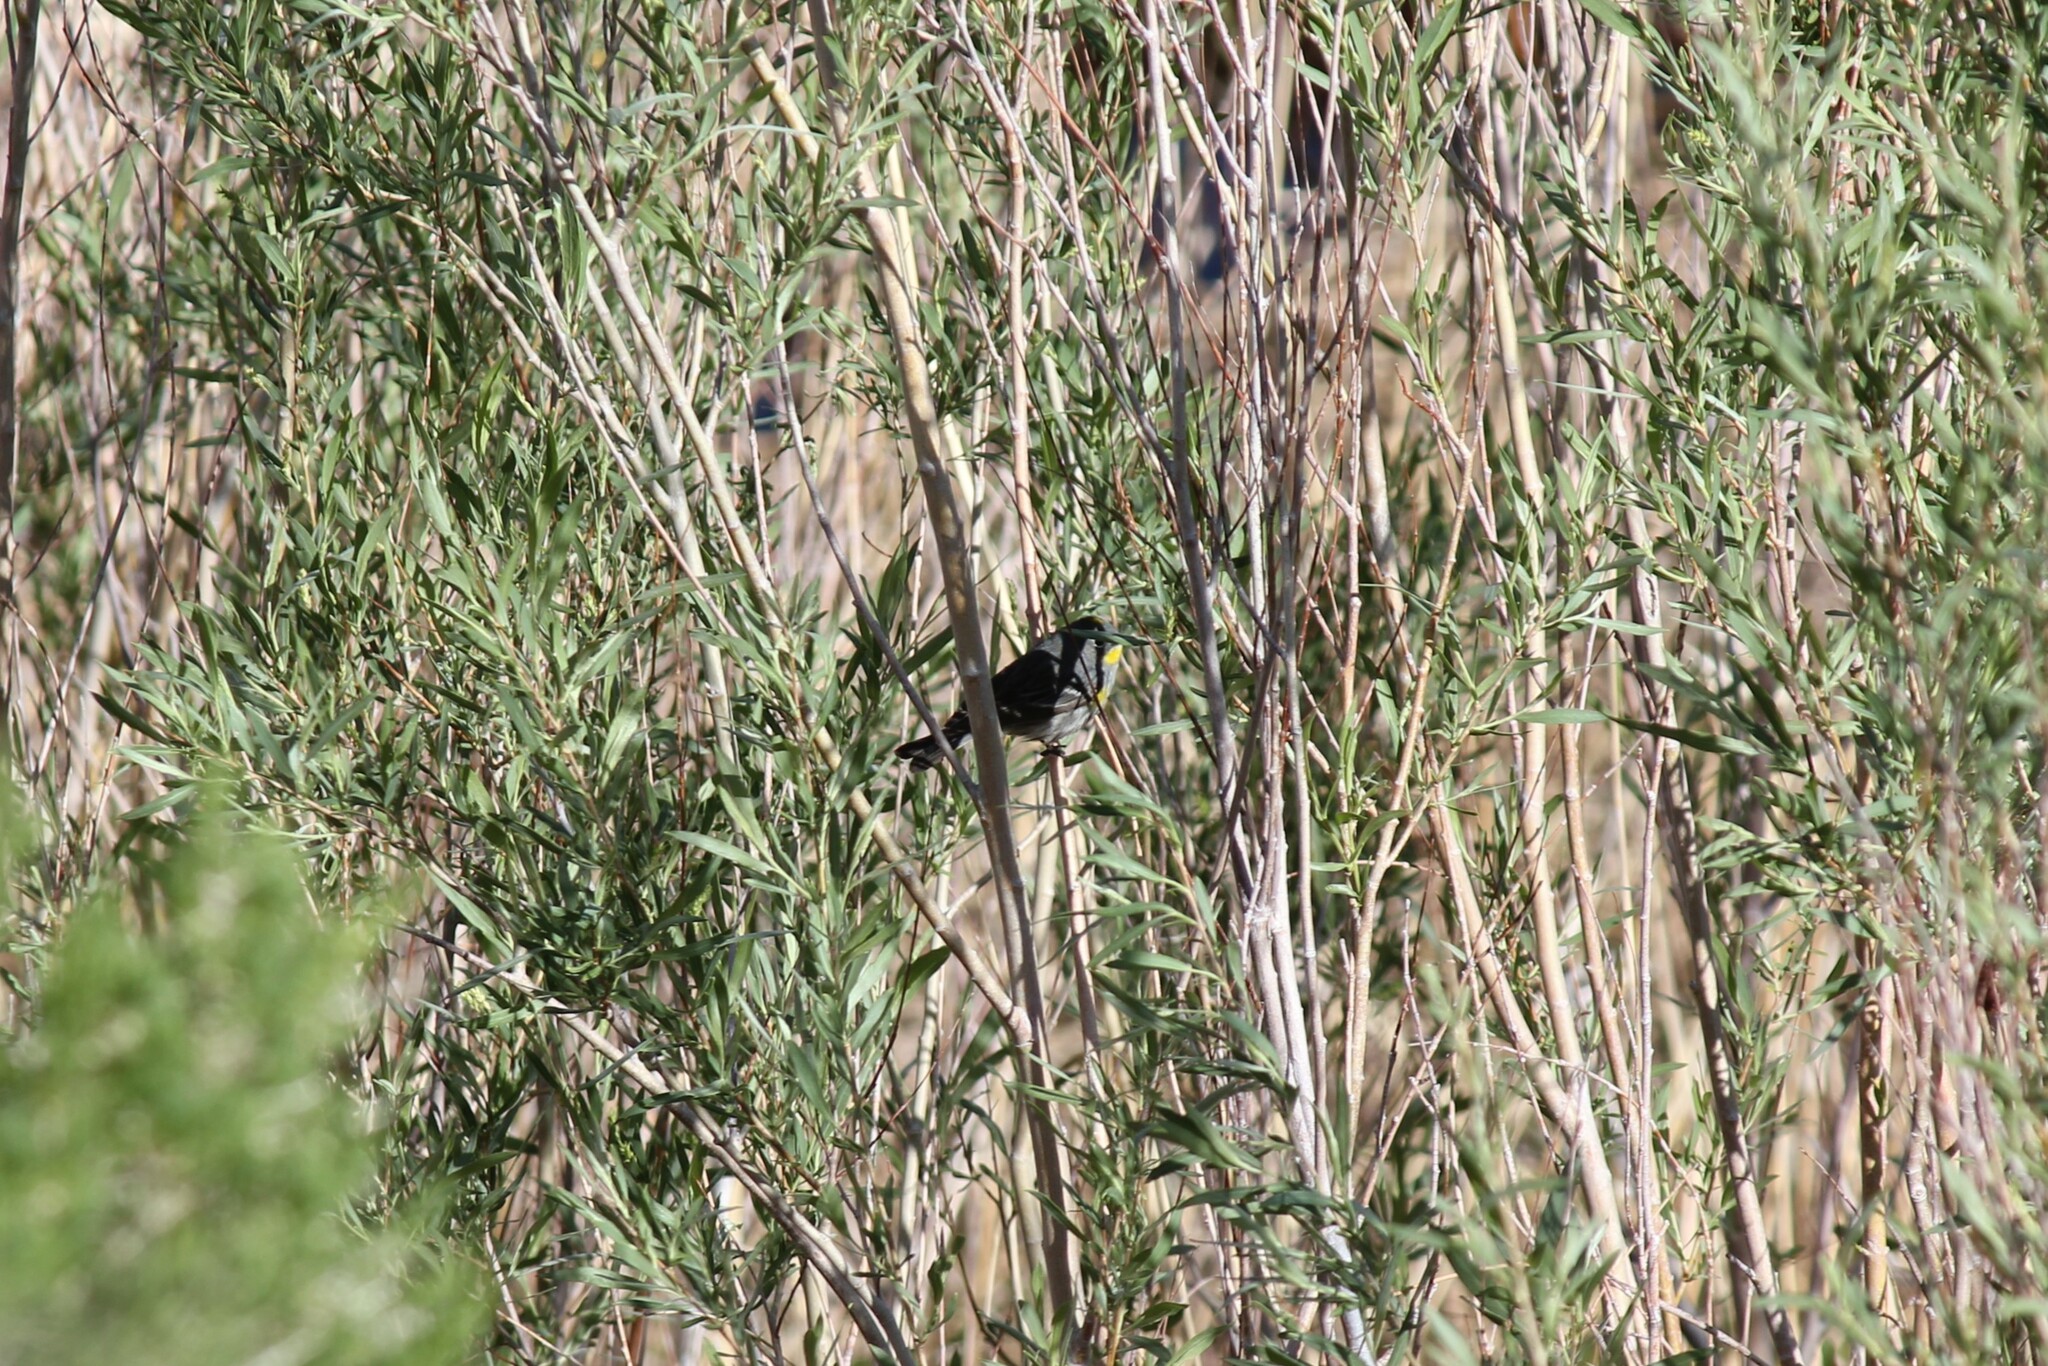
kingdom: Animalia
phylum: Chordata
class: Aves
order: Passeriformes
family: Parulidae
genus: Setophaga
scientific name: Setophaga coronata
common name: Myrtle warbler
